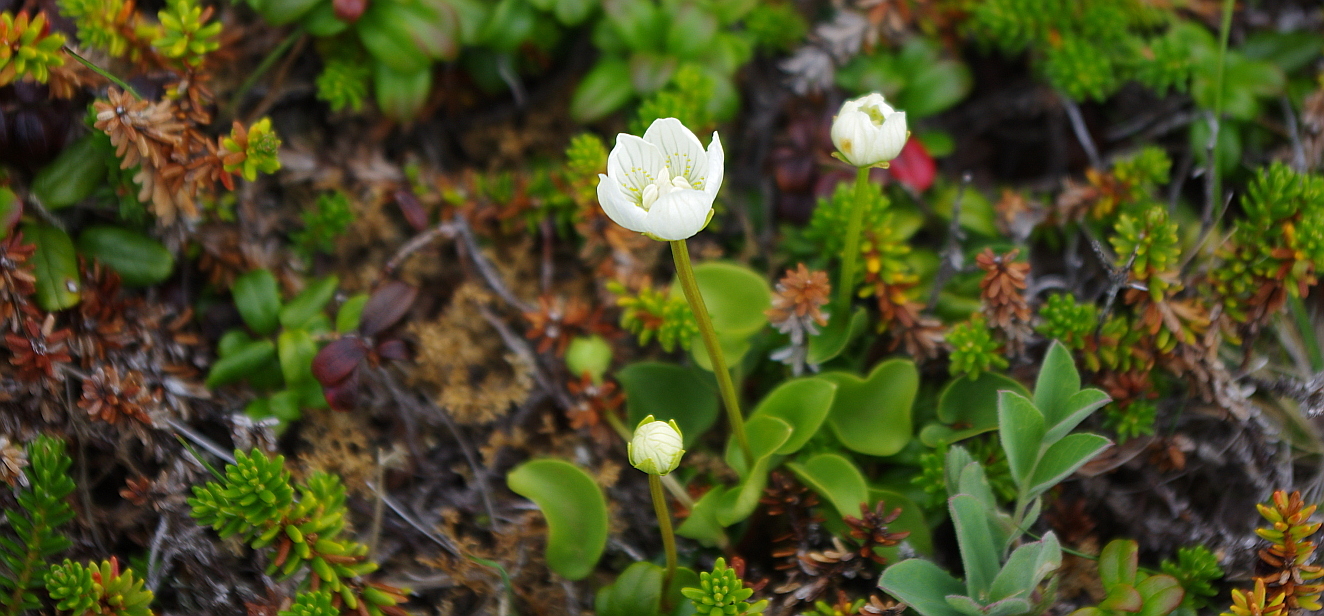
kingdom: Plantae
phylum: Tracheophyta
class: Magnoliopsida
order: Celastrales
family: Parnassiaceae
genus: Parnassia
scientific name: Parnassia palustris
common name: Grass-of-parnassus
